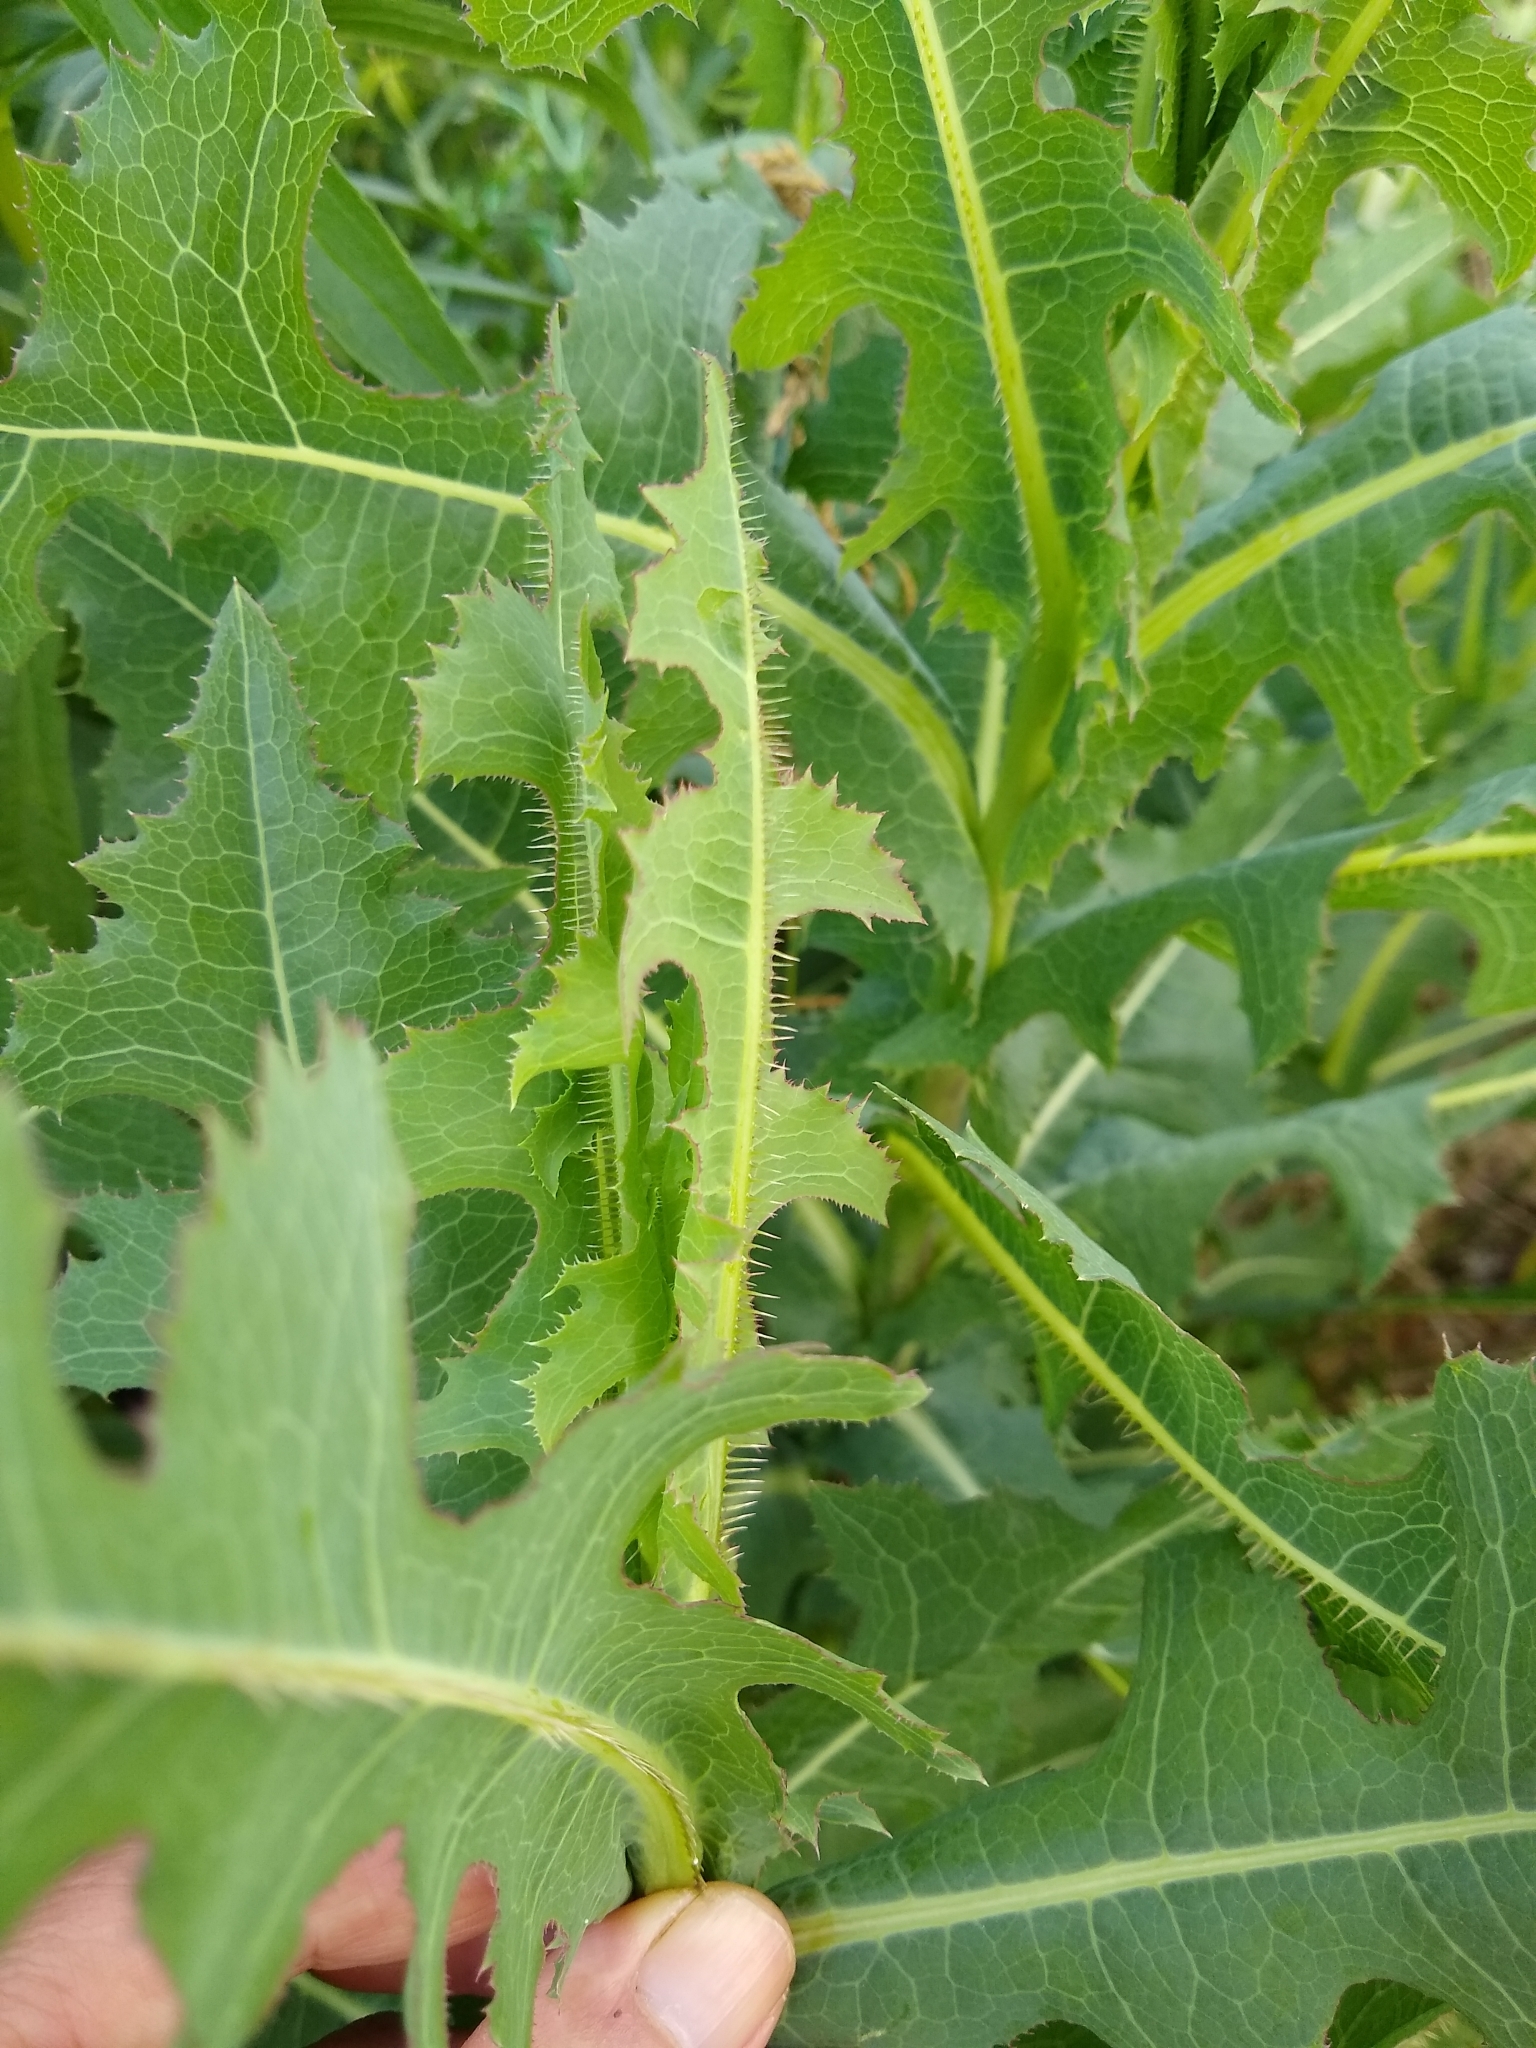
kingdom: Plantae
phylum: Tracheophyta
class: Magnoliopsida
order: Asterales
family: Asteraceae
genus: Lactuca
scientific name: Lactuca serriola
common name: Prickly lettuce
